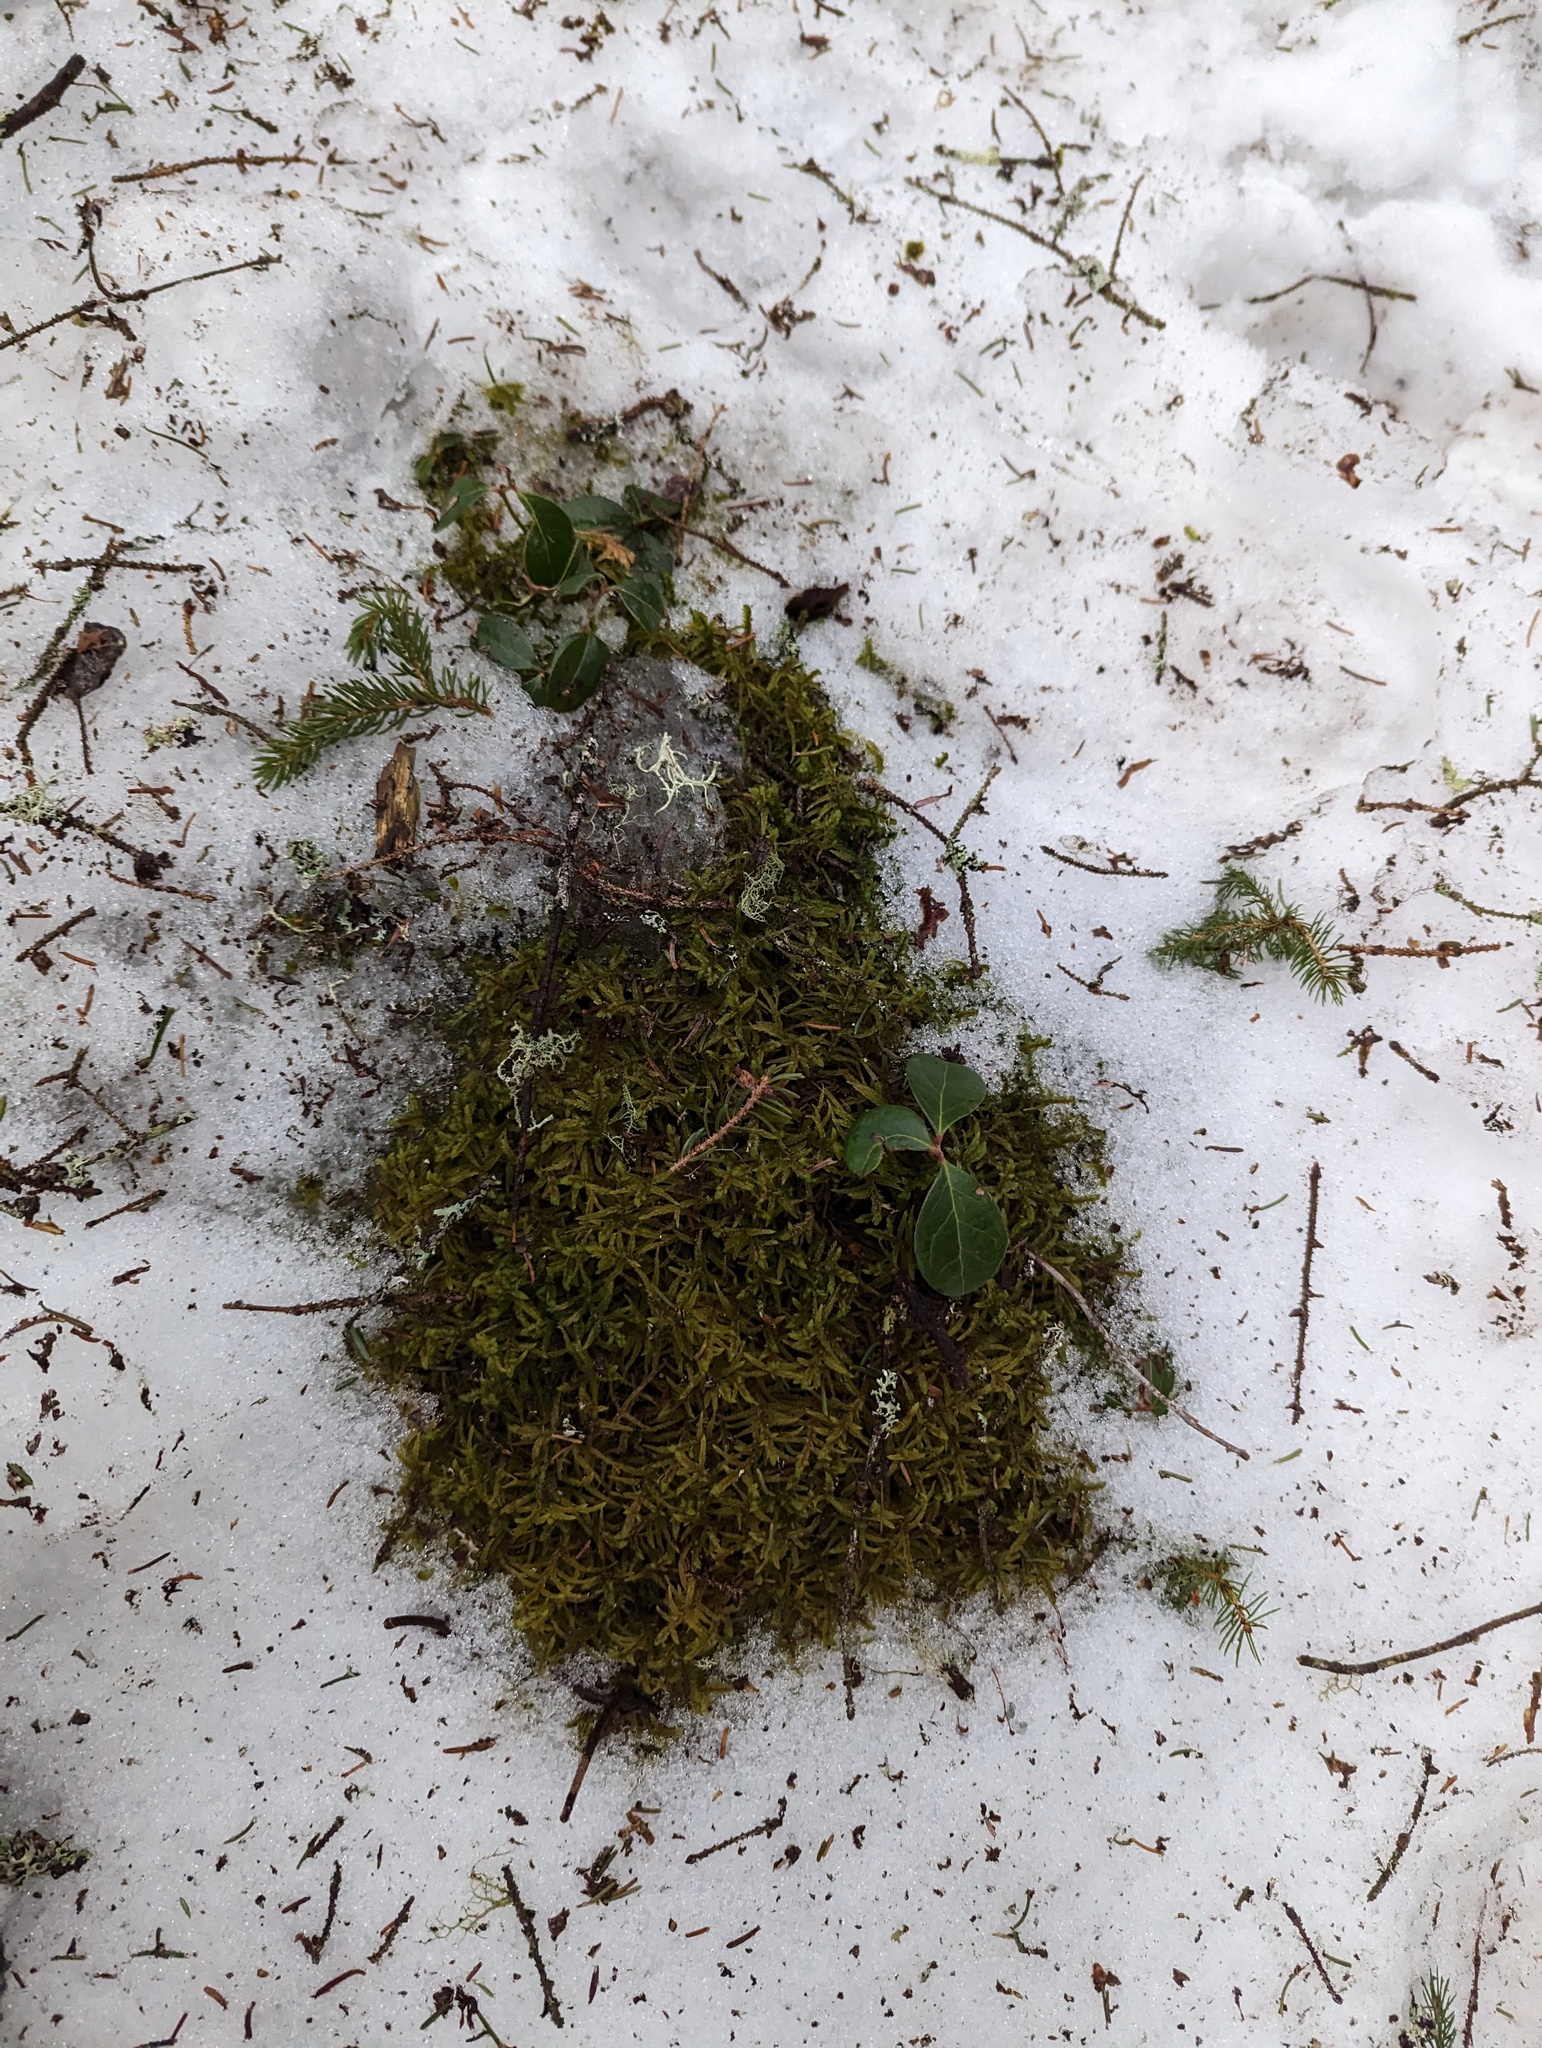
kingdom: Plantae
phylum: Tracheophyta
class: Magnoliopsida
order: Ericales
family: Ericaceae
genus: Gaultheria
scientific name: Gaultheria procumbens
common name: Checkerberry
